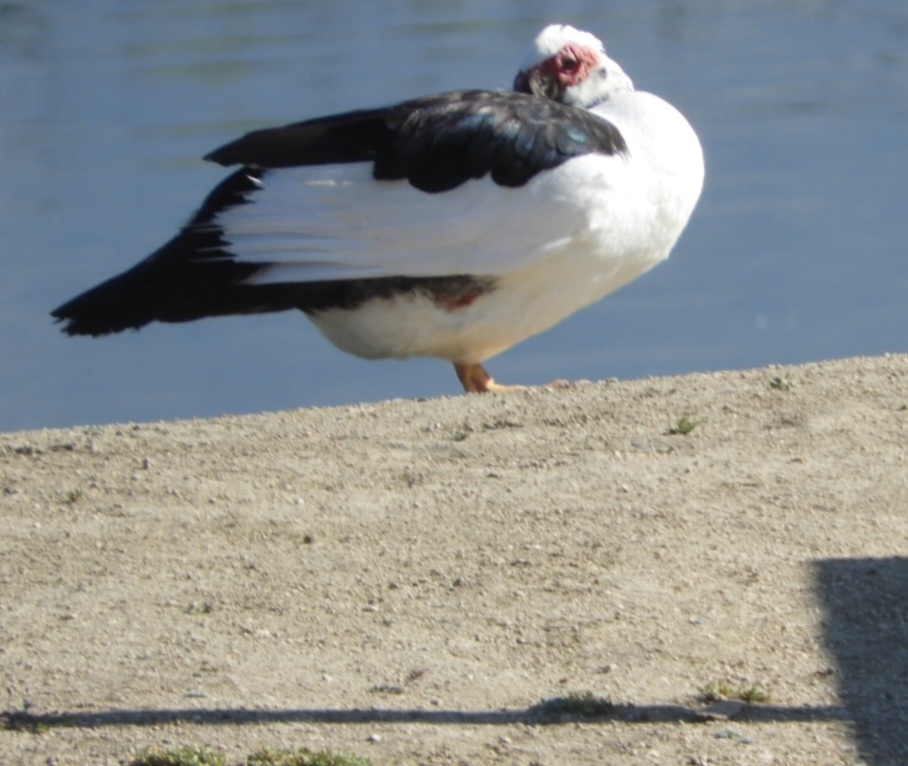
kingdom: Animalia
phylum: Chordata
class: Aves
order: Anseriformes
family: Anatidae
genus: Cairina
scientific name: Cairina moschata
